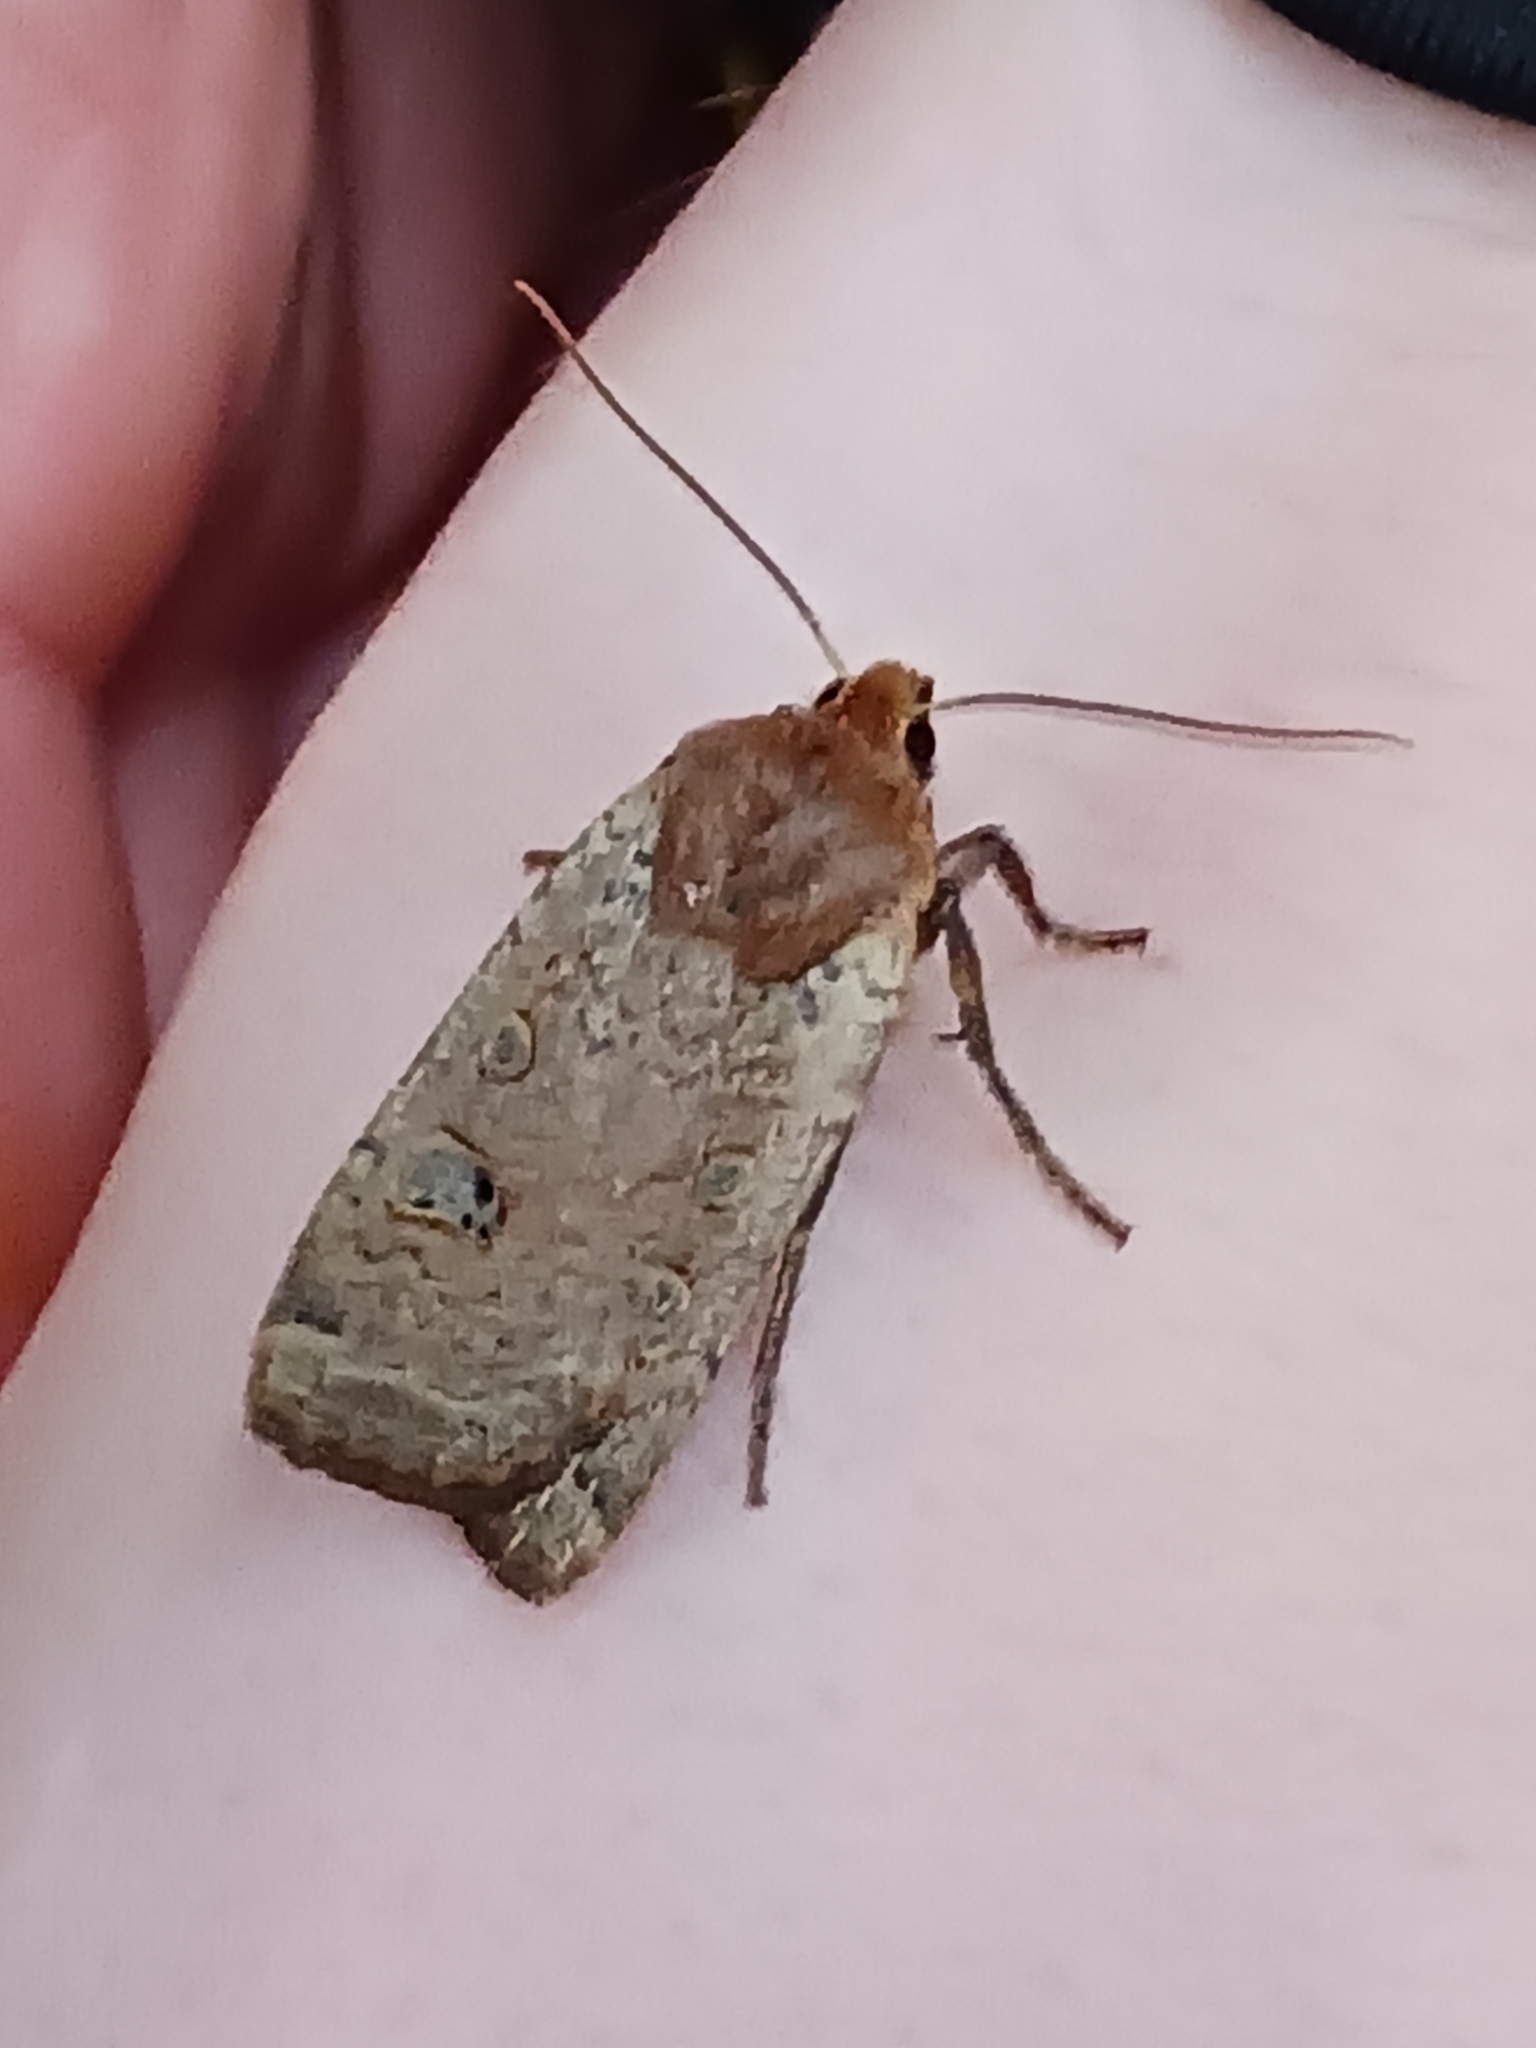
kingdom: Animalia
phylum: Arthropoda
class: Insecta
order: Lepidoptera
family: Noctuidae
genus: Conistra
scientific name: Conistra erythrocephala
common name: Red-headed chestnut
